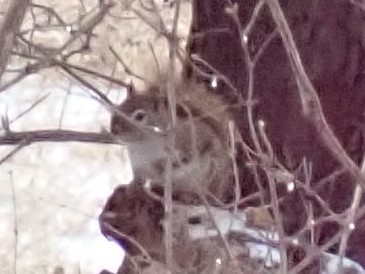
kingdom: Animalia
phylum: Chordata
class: Mammalia
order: Rodentia
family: Sciuridae
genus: Tamiasciurus
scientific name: Tamiasciurus hudsonicus
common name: Red squirrel
